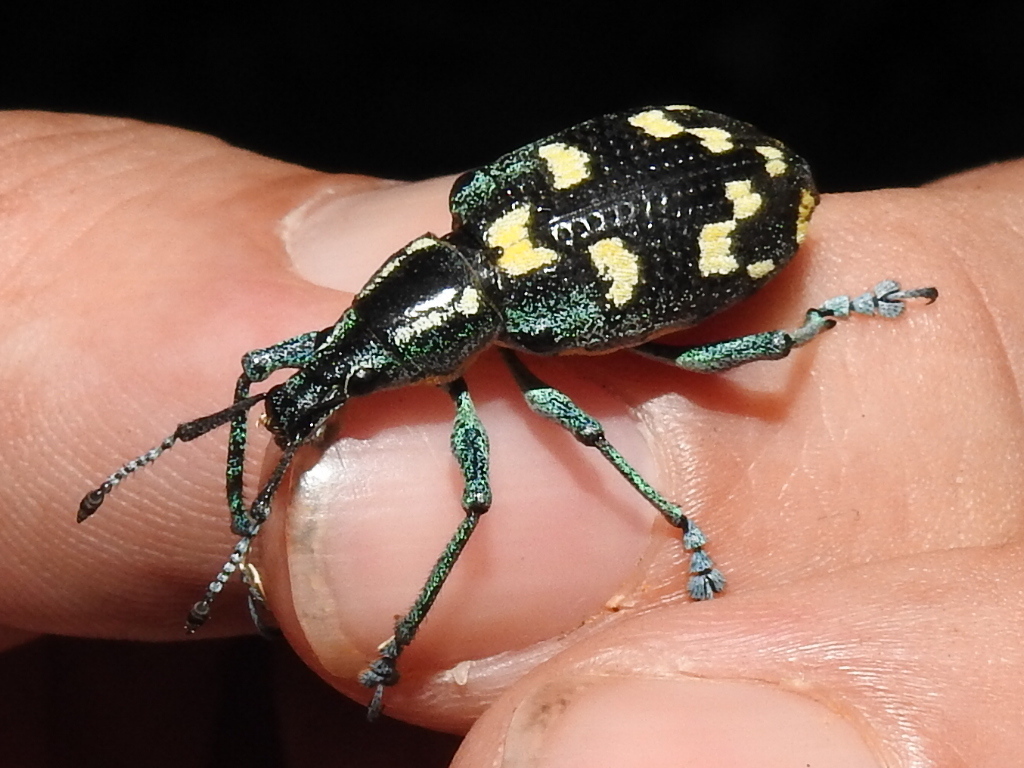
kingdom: Animalia
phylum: Arthropoda
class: Insecta
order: Coleoptera
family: Curculionidae
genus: Exophthalmus
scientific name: Exophthalmus nicaraguensis
